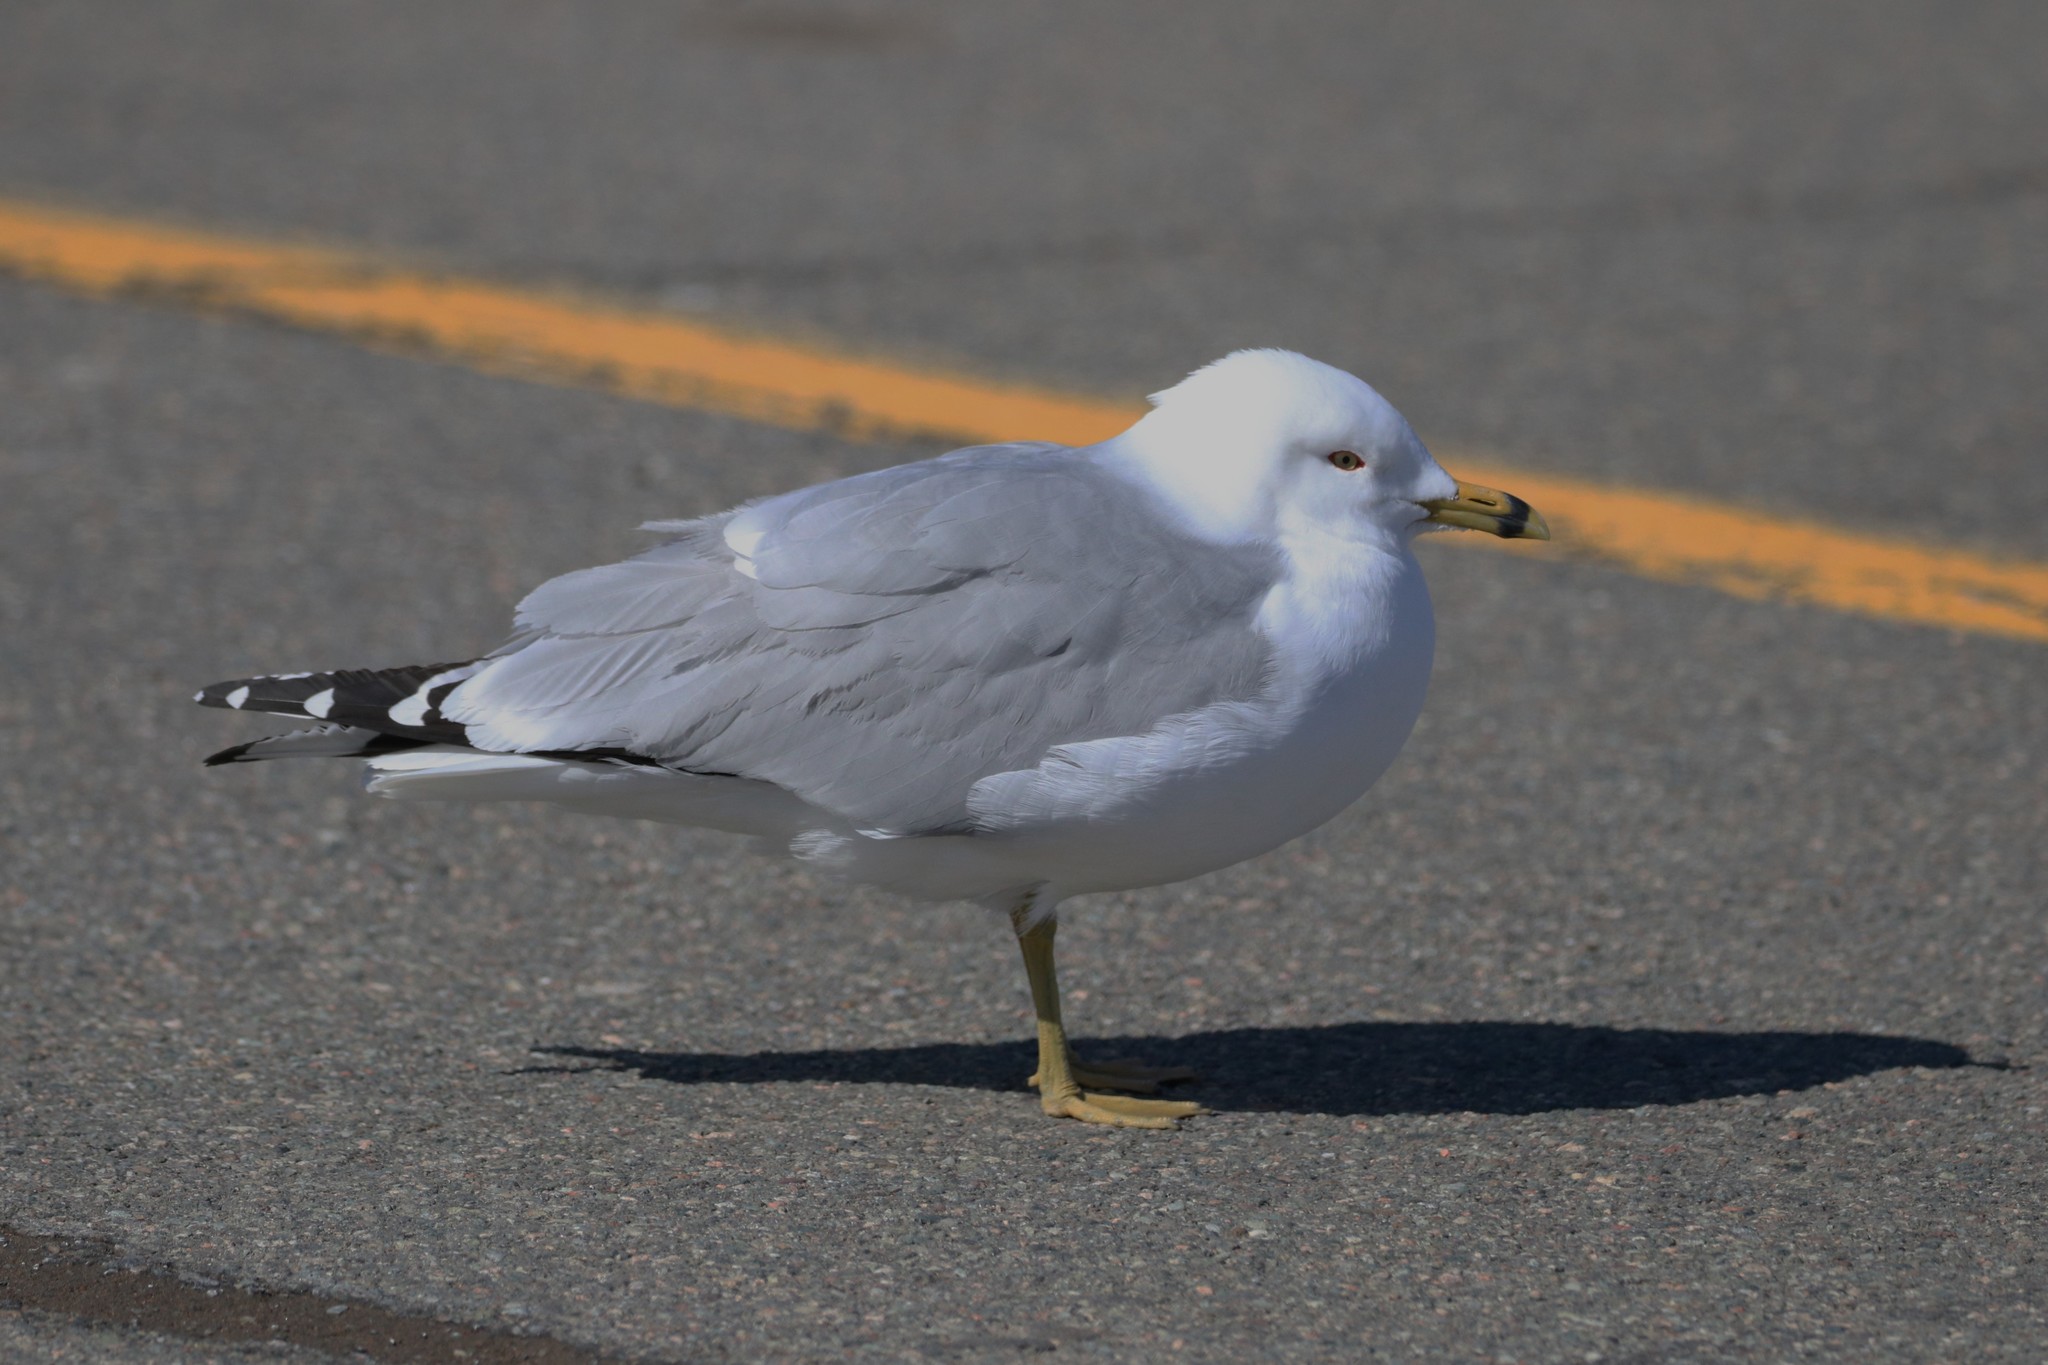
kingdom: Animalia
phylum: Chordata
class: Aves
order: Charadriiformes
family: Laridae
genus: Larus
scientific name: Larus delawarensis
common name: Ring-billed gull
